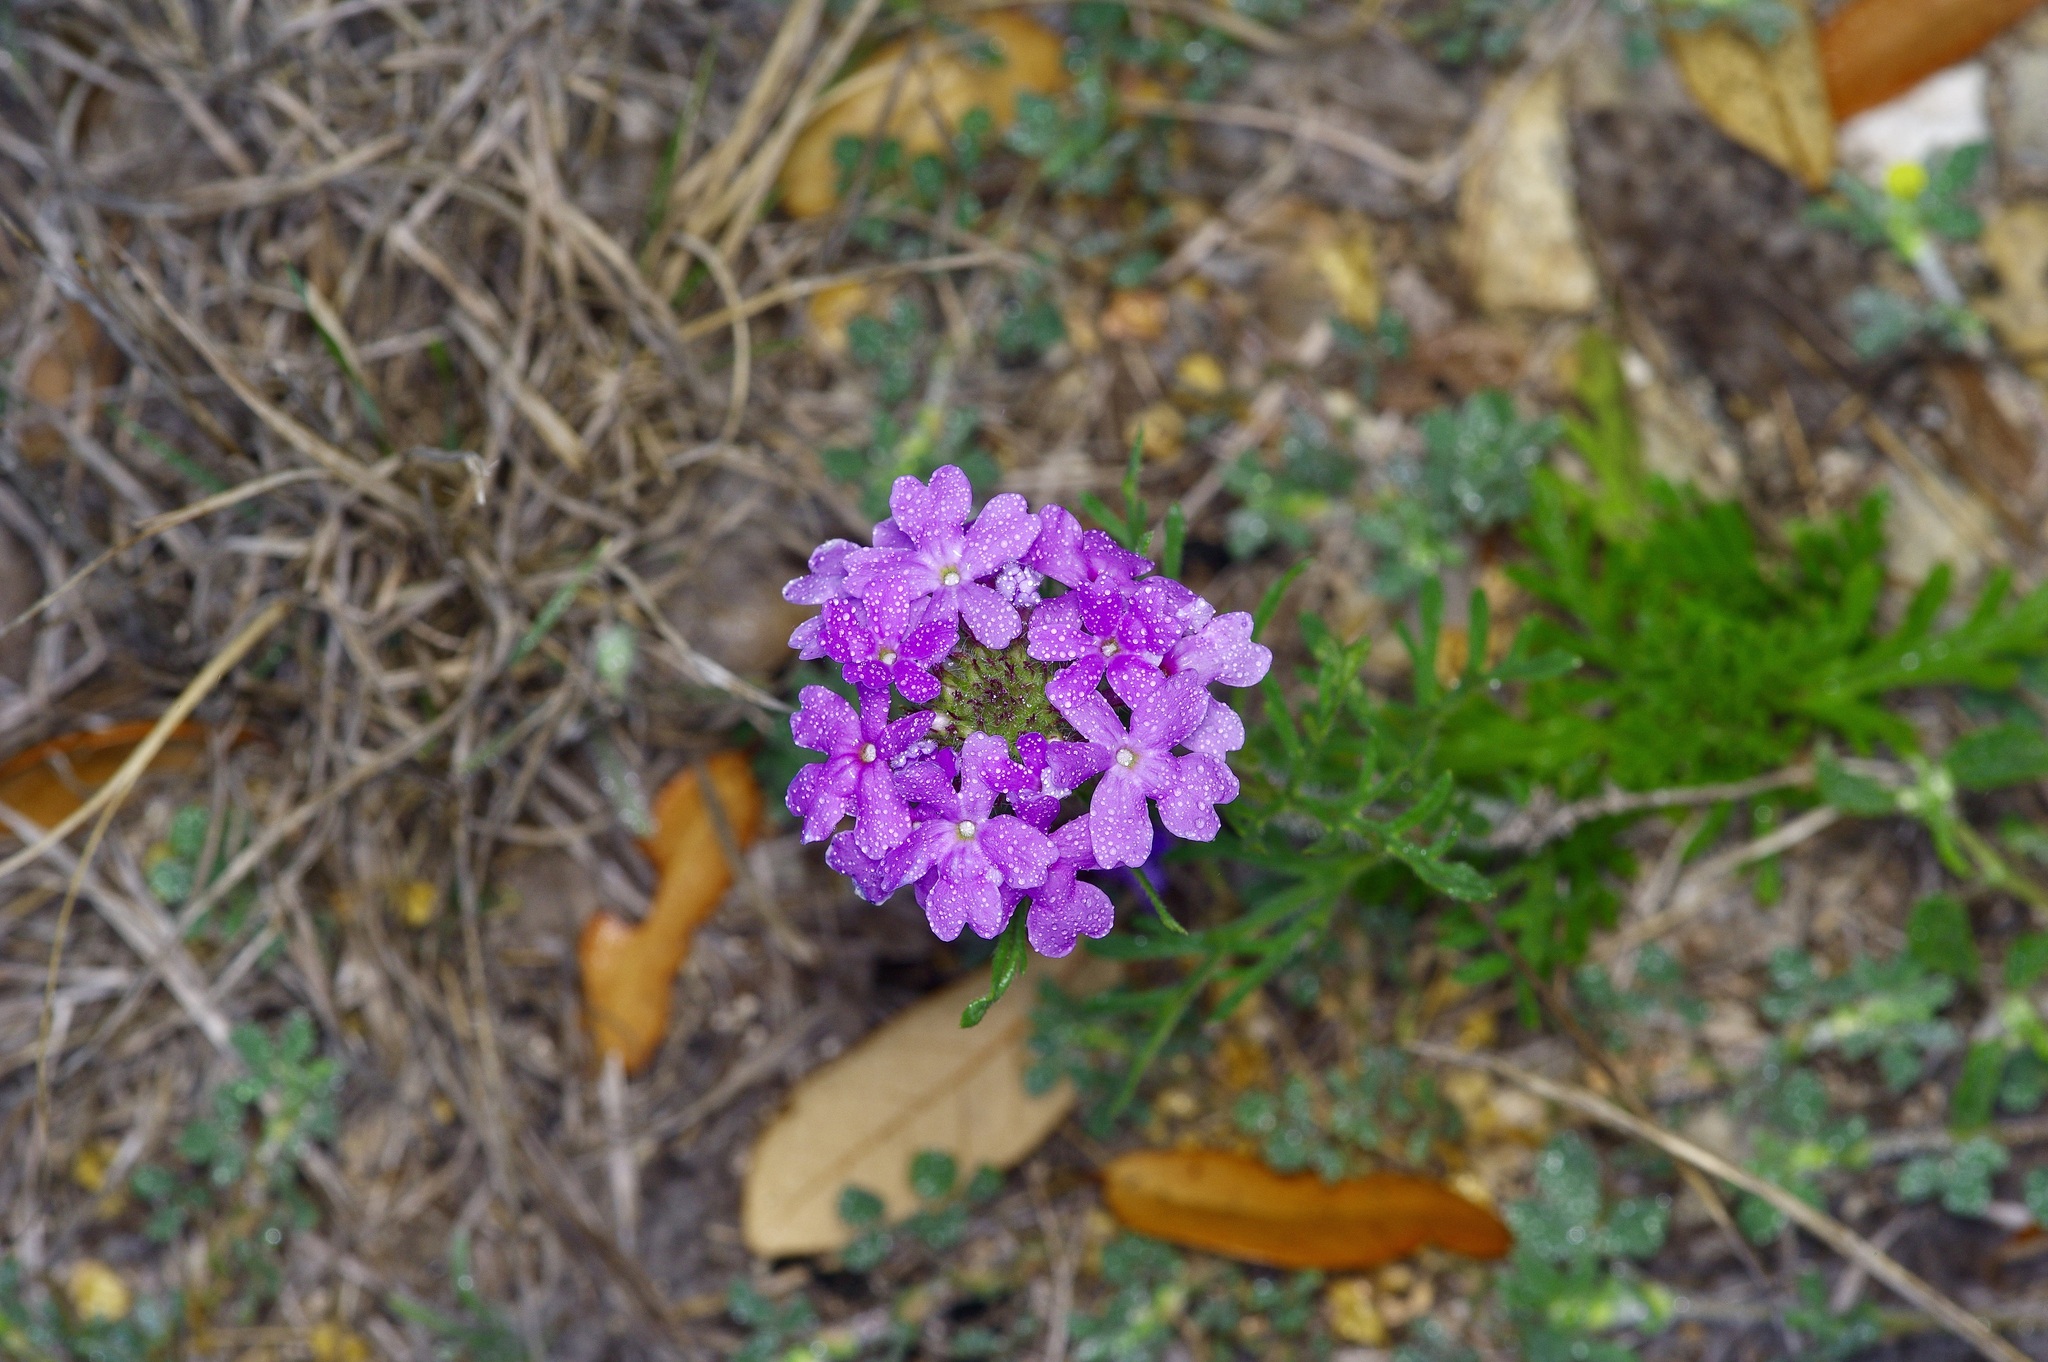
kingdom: Plantae
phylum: Tracheophyta
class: Magnoliopsida
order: Lamiales
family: Verbenaceae
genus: Verbena
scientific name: Verbena bipinnatifida
